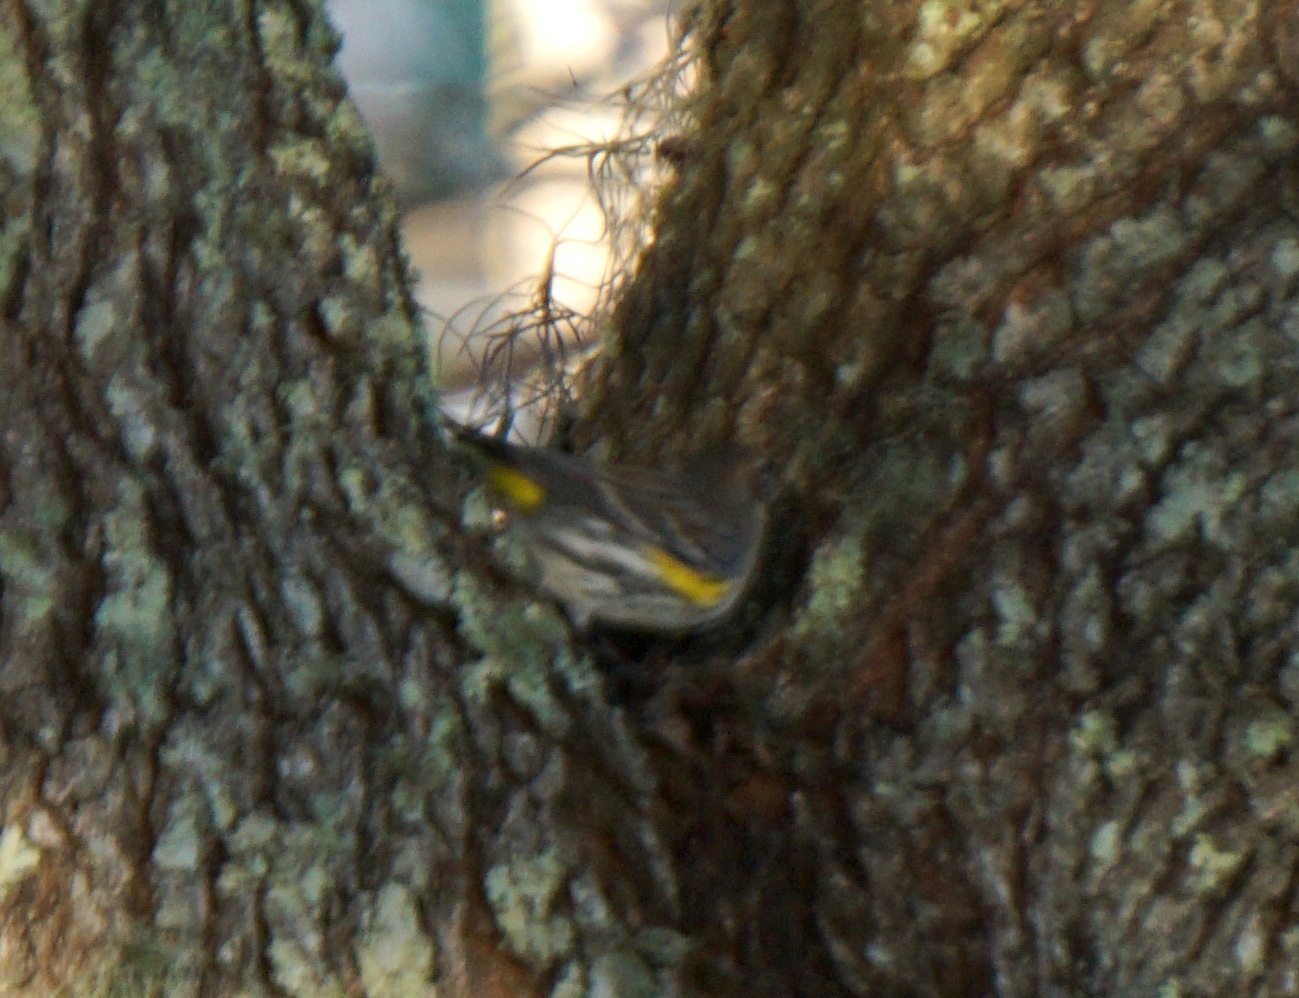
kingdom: Animalia
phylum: Chordata
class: Aves
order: Passeriformes
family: Parulidae
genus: Setophaga
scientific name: Setophaga coronata
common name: Myrtle warbler
